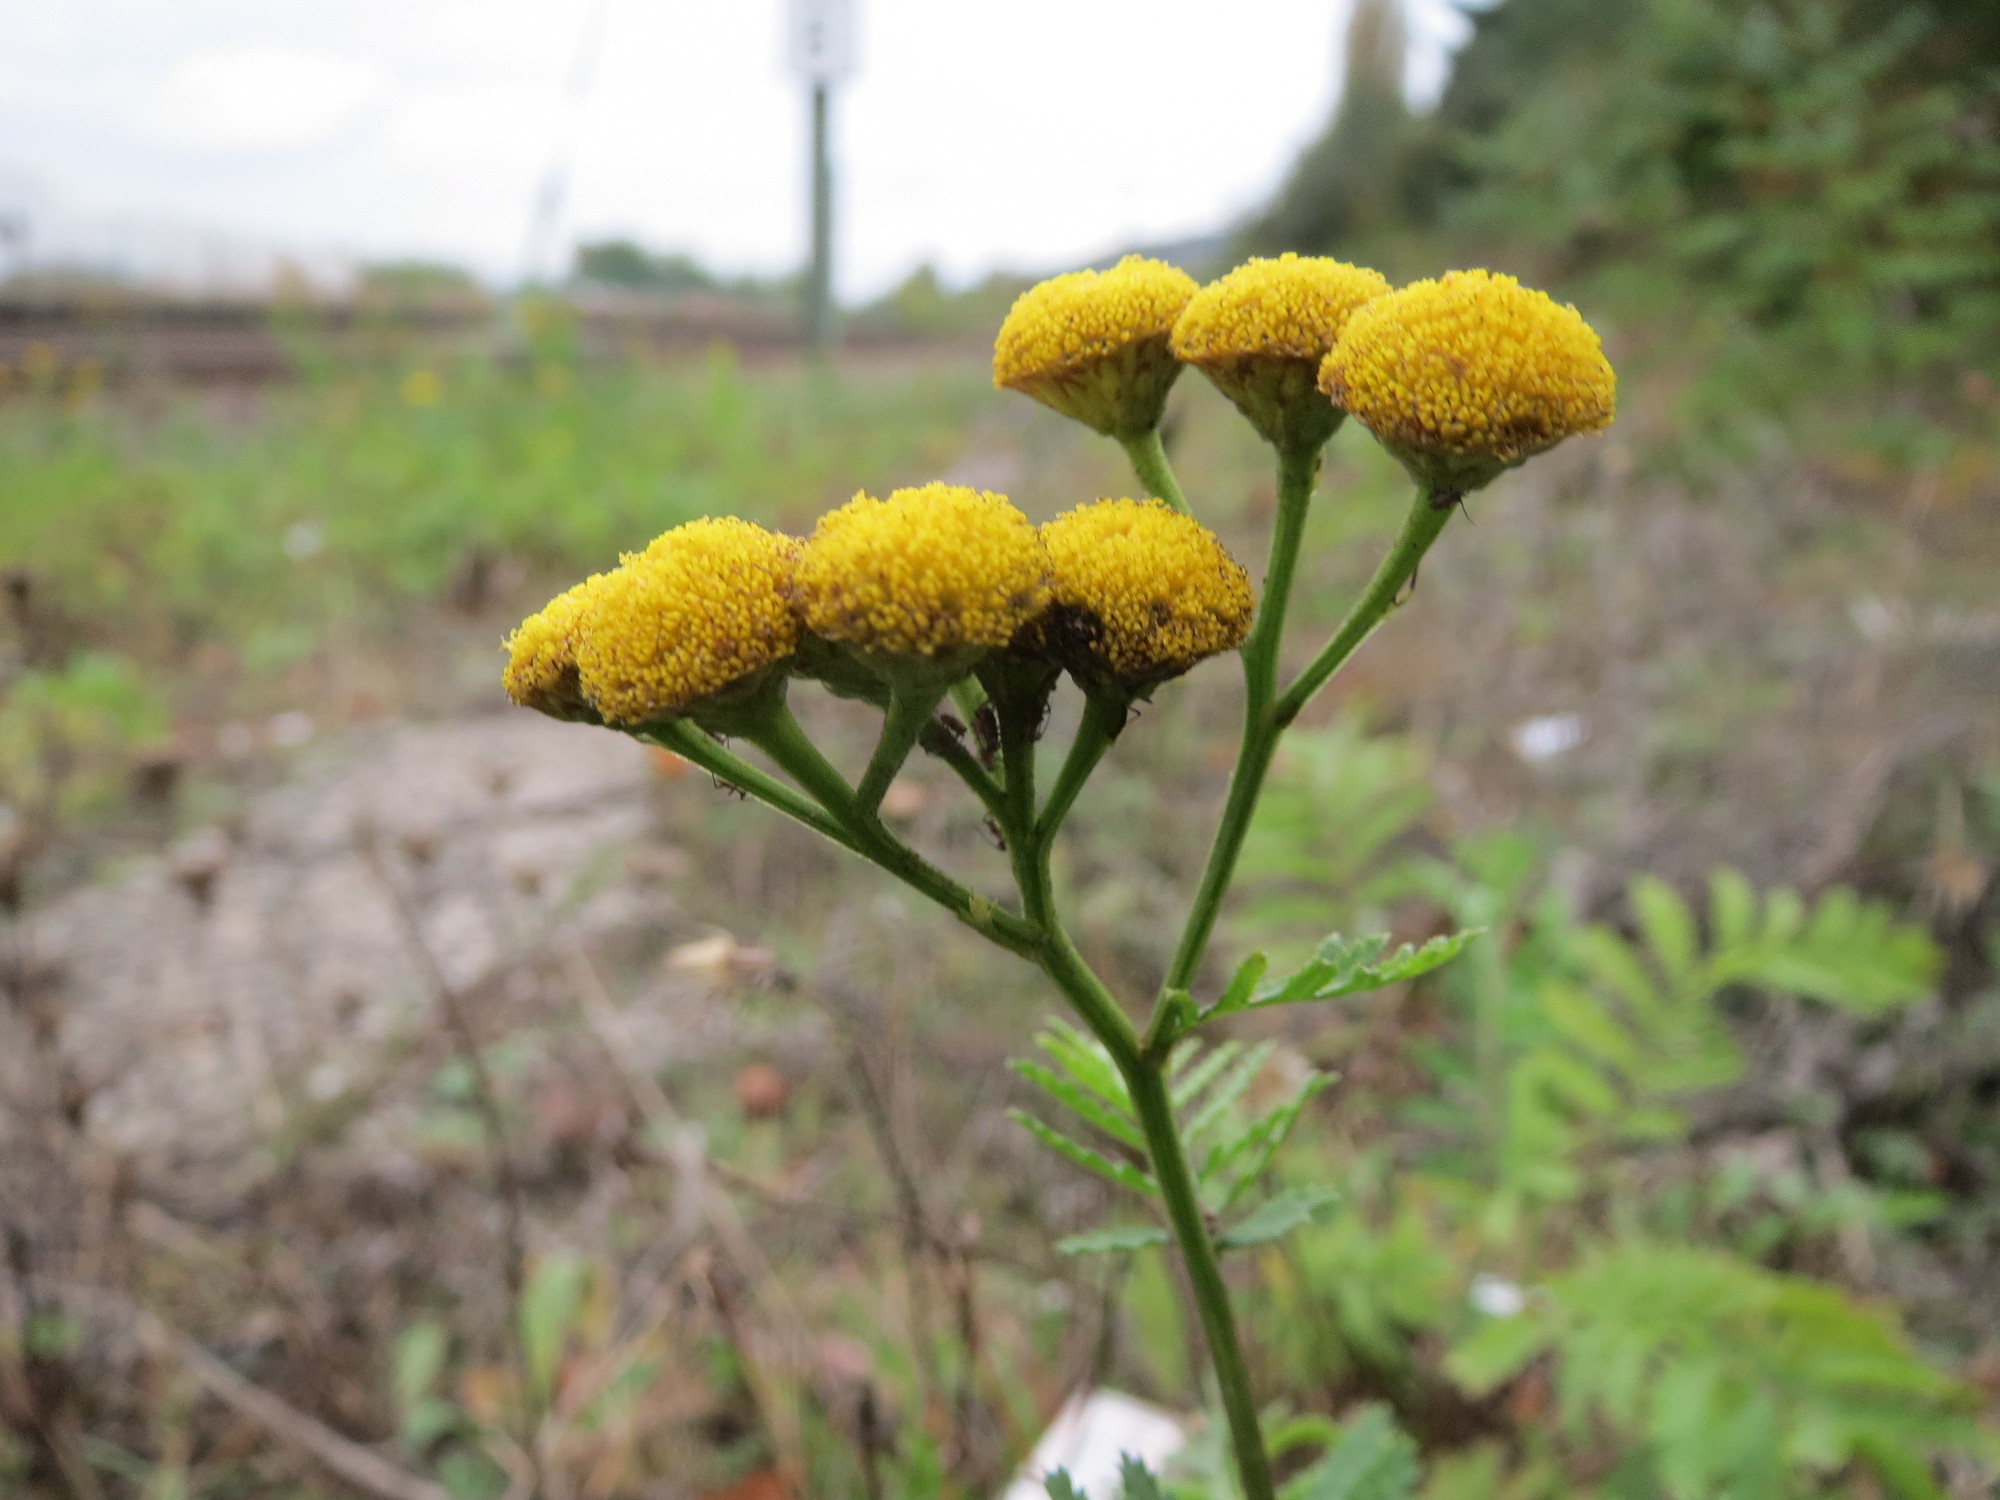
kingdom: Plantae
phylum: Tracheophyta
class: Magnoliopsida
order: Asterales
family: Asteraceae
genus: Tanacetum
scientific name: Tanacetum vulgare
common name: Common tansy
